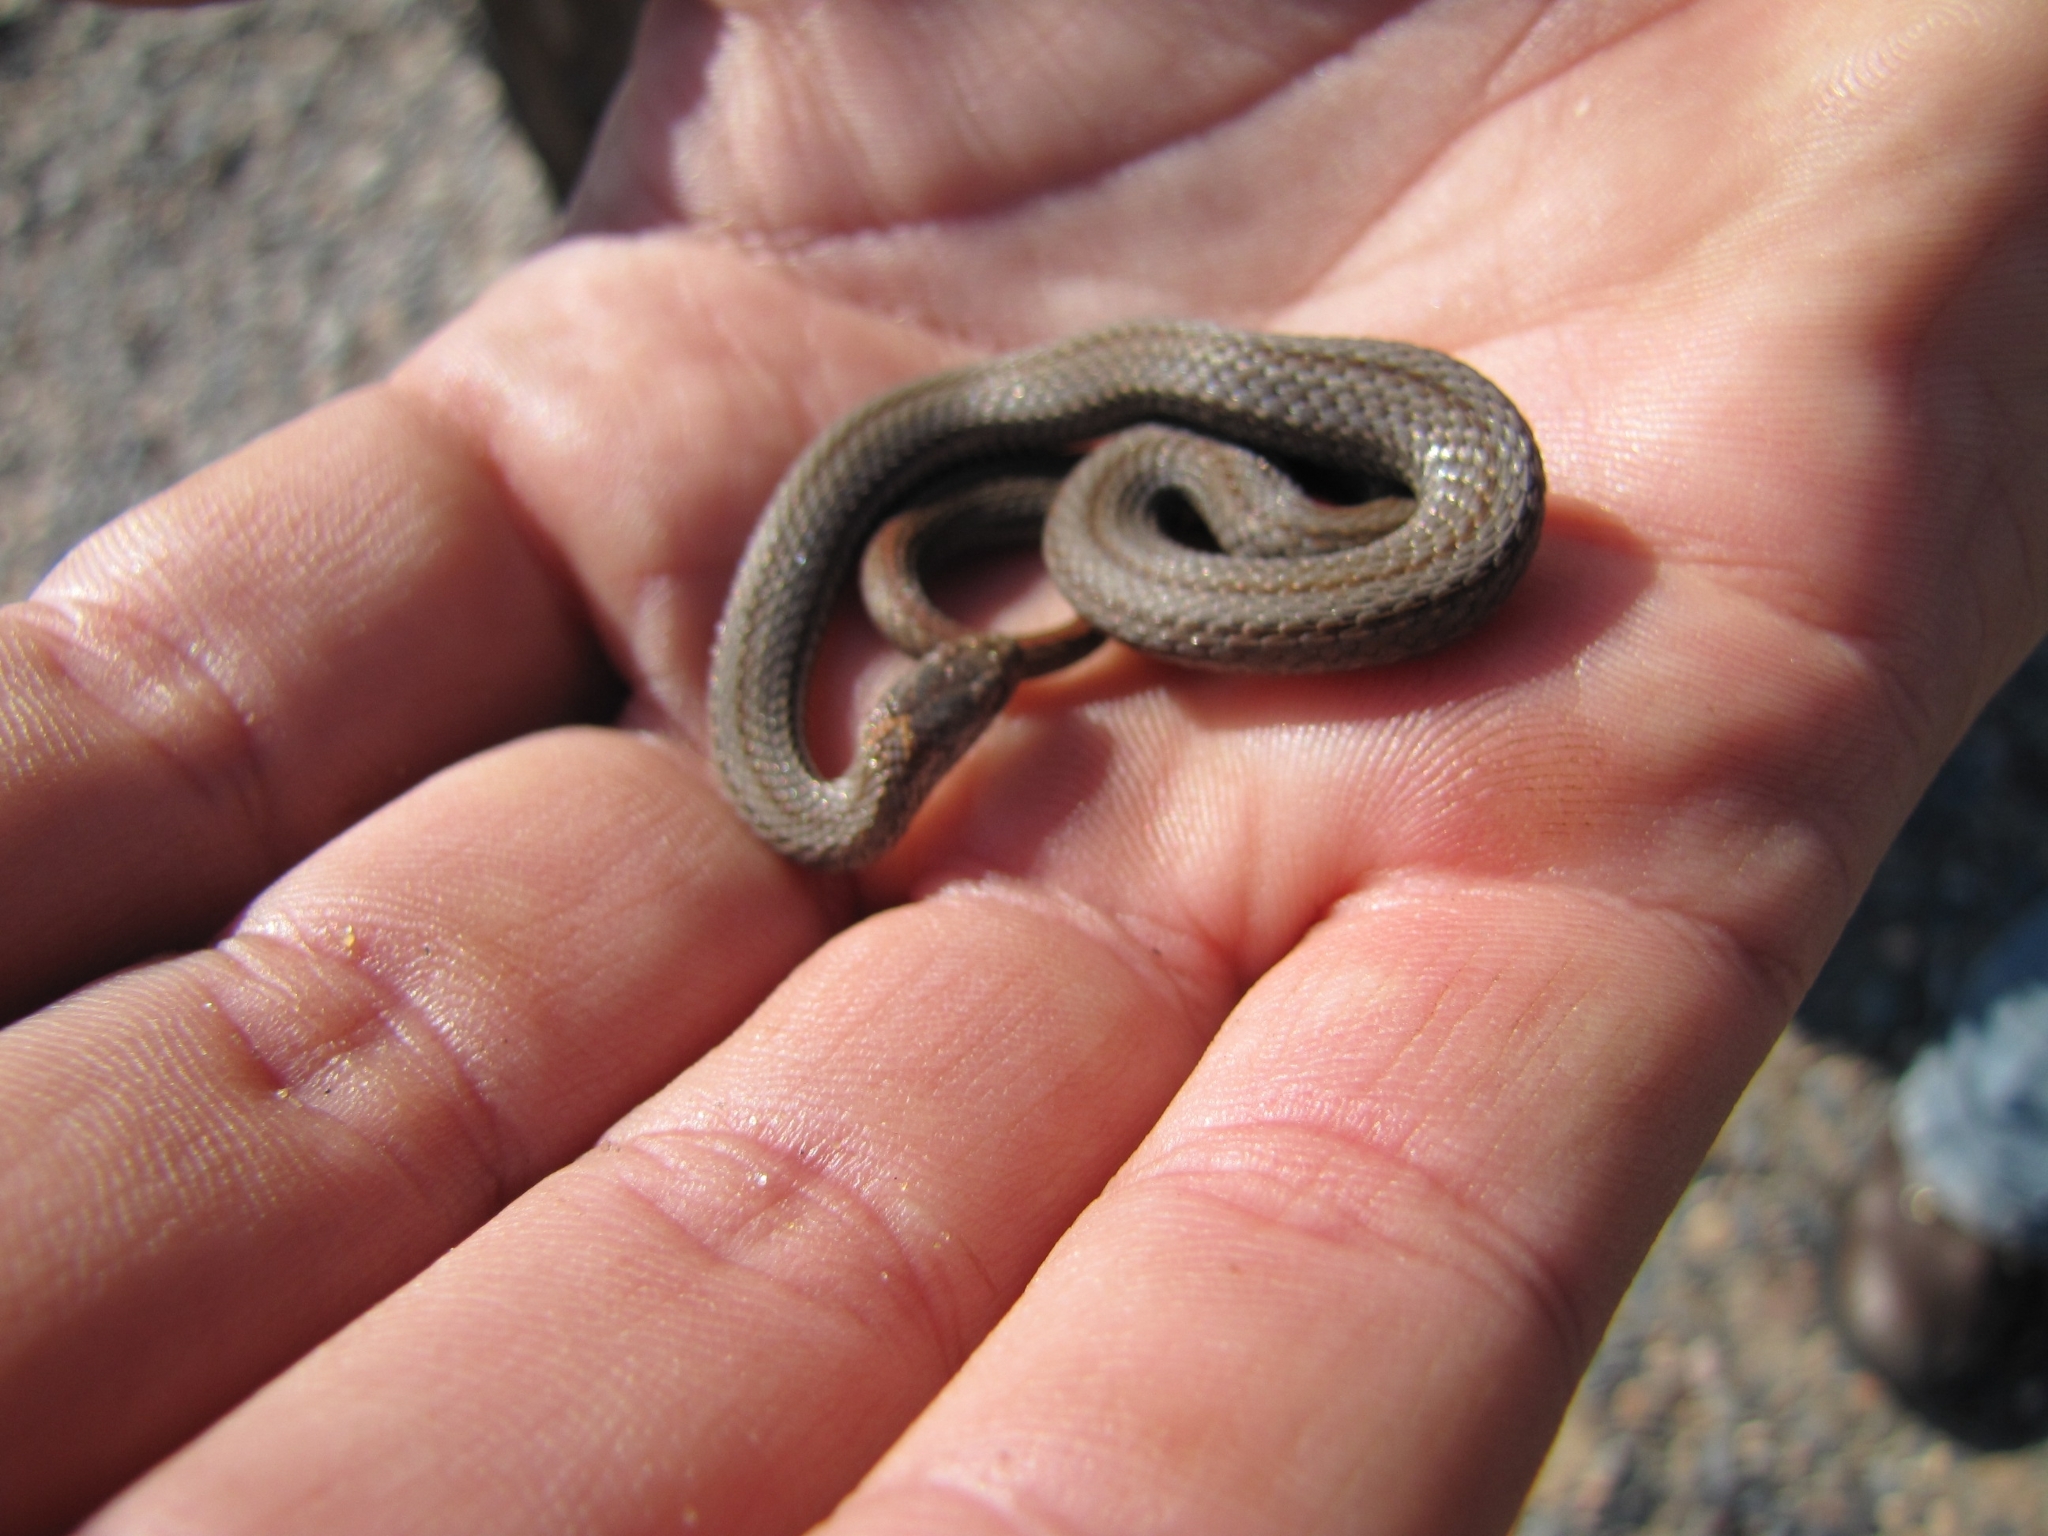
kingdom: Animalia
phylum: Chordata
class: Squamata
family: Colubridae
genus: Storeria
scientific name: Storeria occipitomaculata
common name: Redbelly snake
